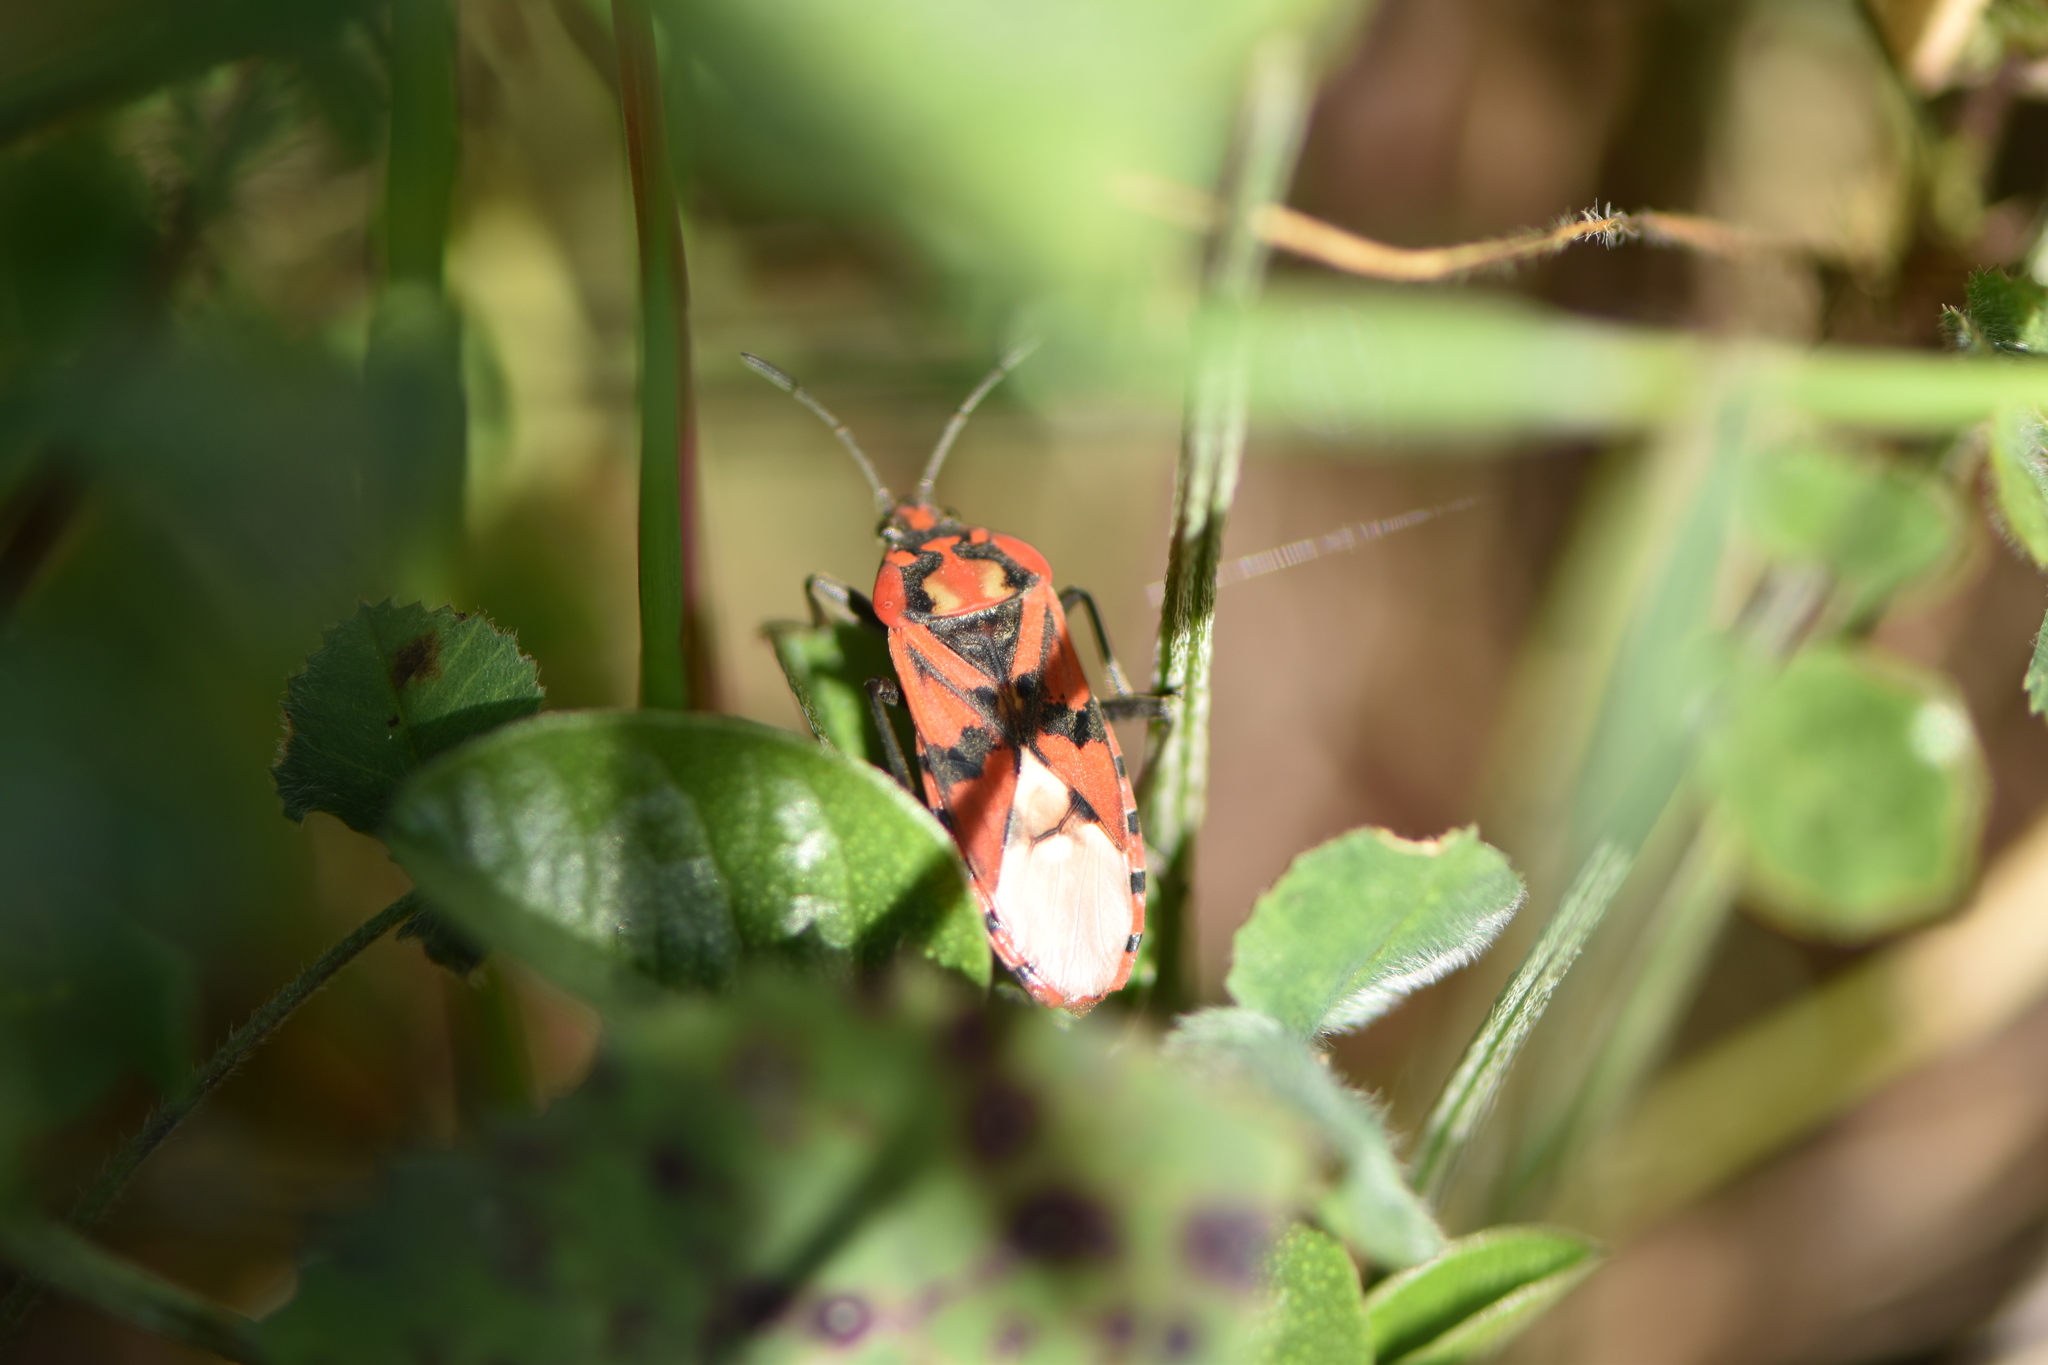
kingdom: Animalia
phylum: Arthropoda
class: Insecta
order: Hemiptera
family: Lygaeidae
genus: Spilostethus
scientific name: Spilostethus pandurus
